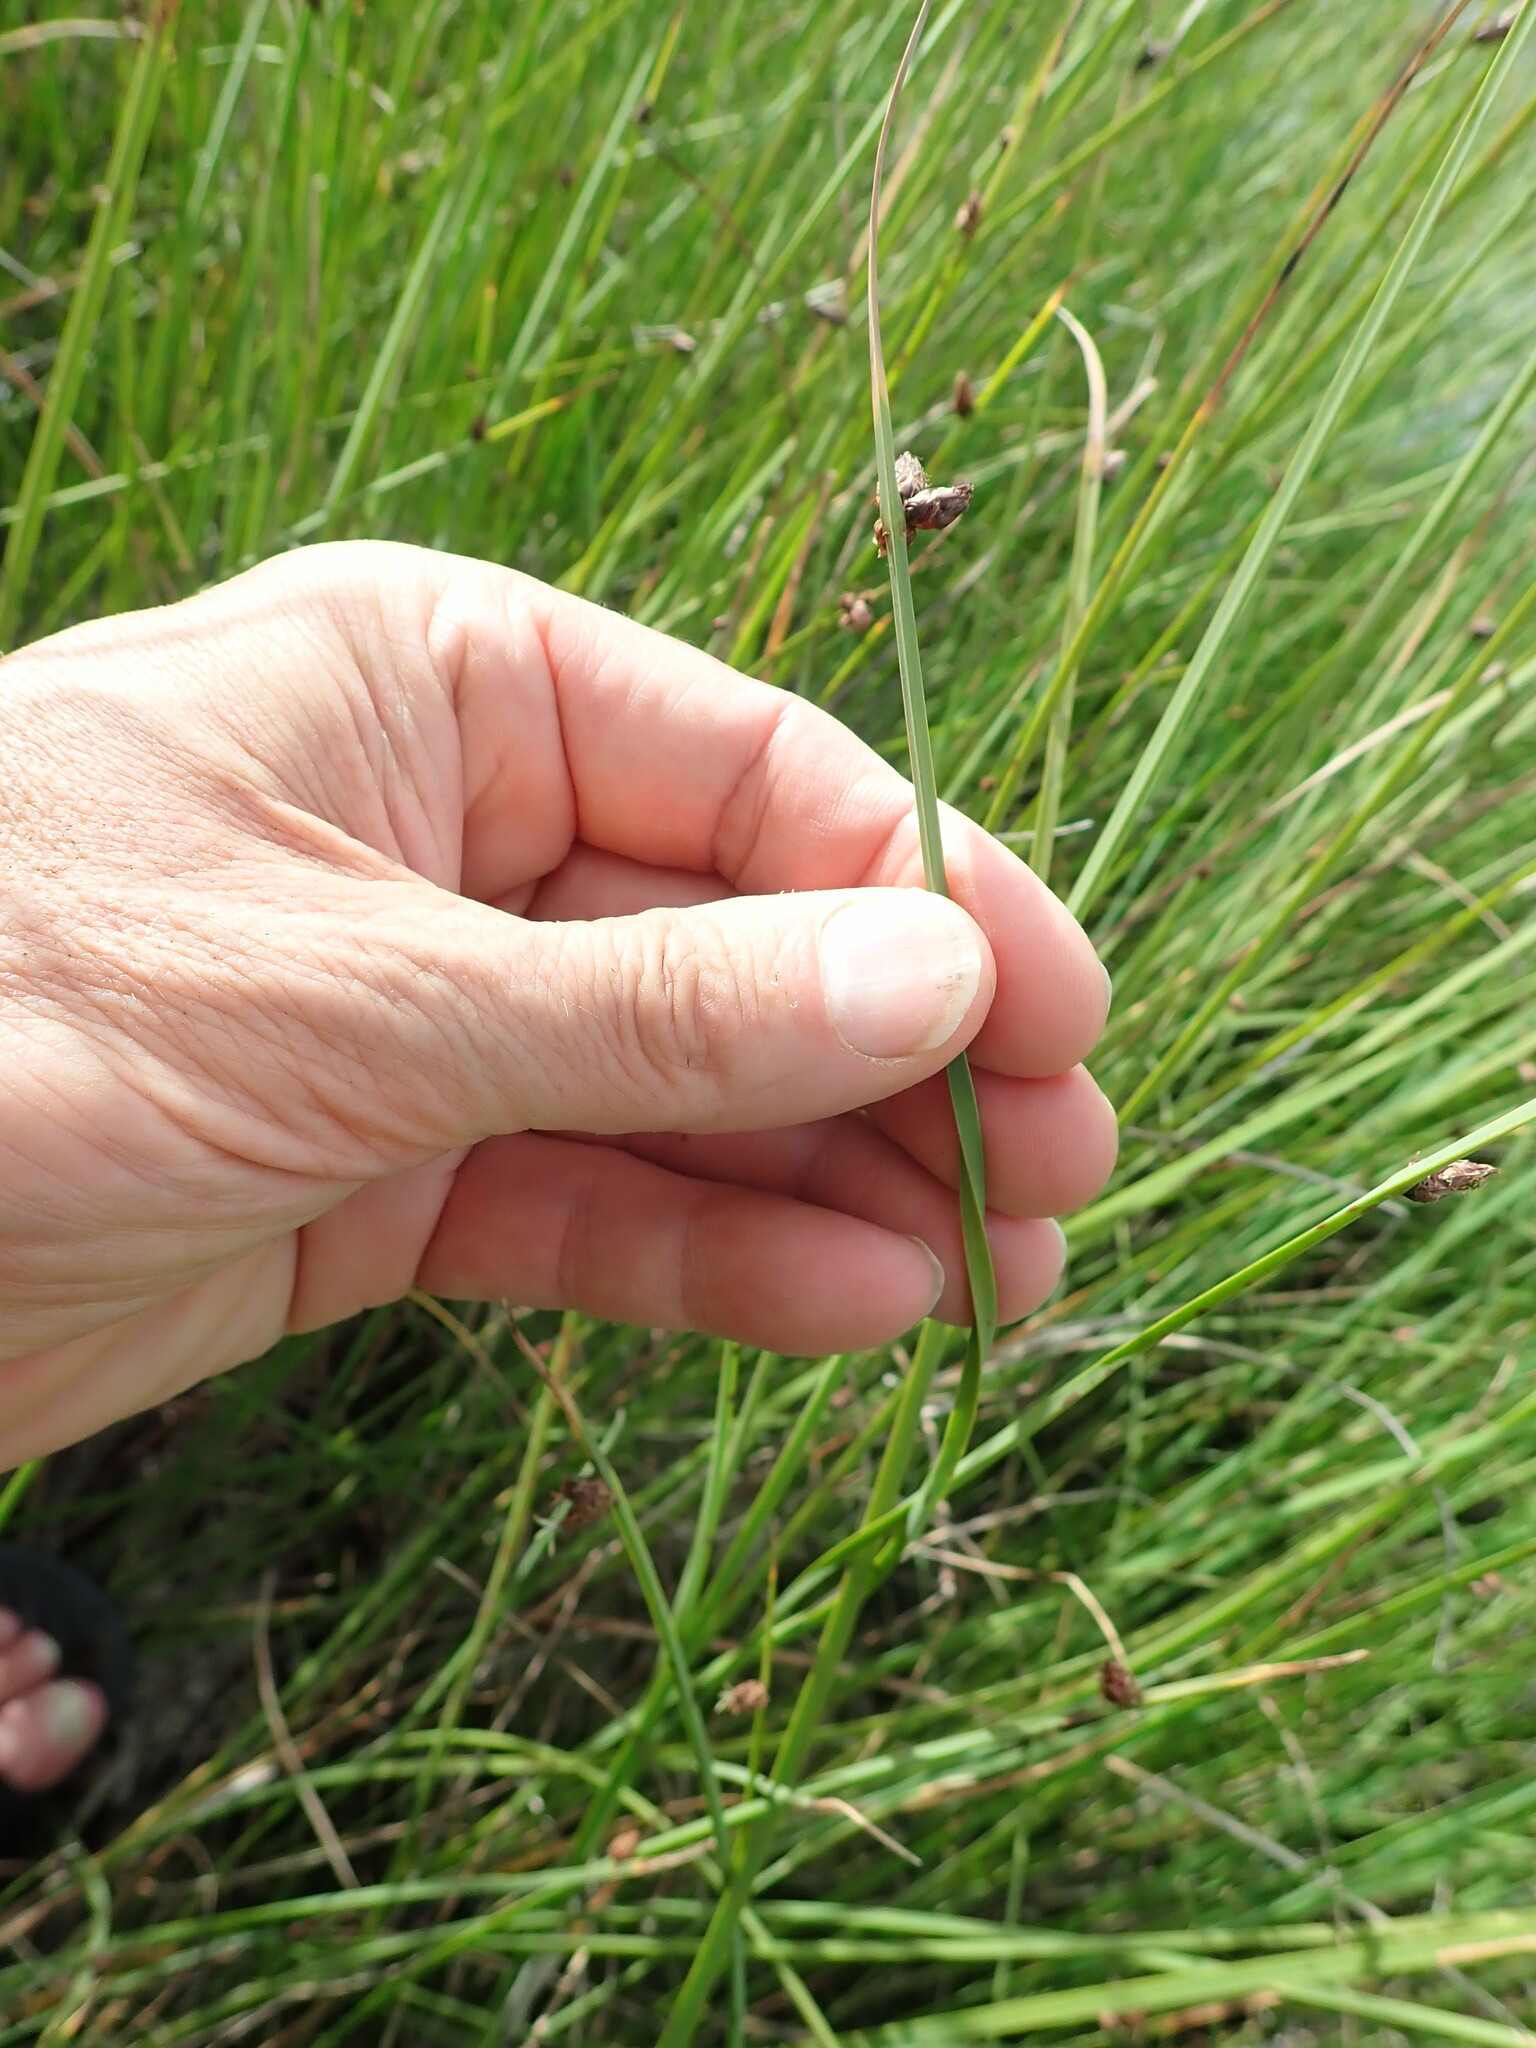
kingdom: Plantae
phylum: Tracheophyta
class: Liliopsida
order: Poales
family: Cyperaceae
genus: Schoenoplectus
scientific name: Schoenoplectus pungens
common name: Sharp club-rush
